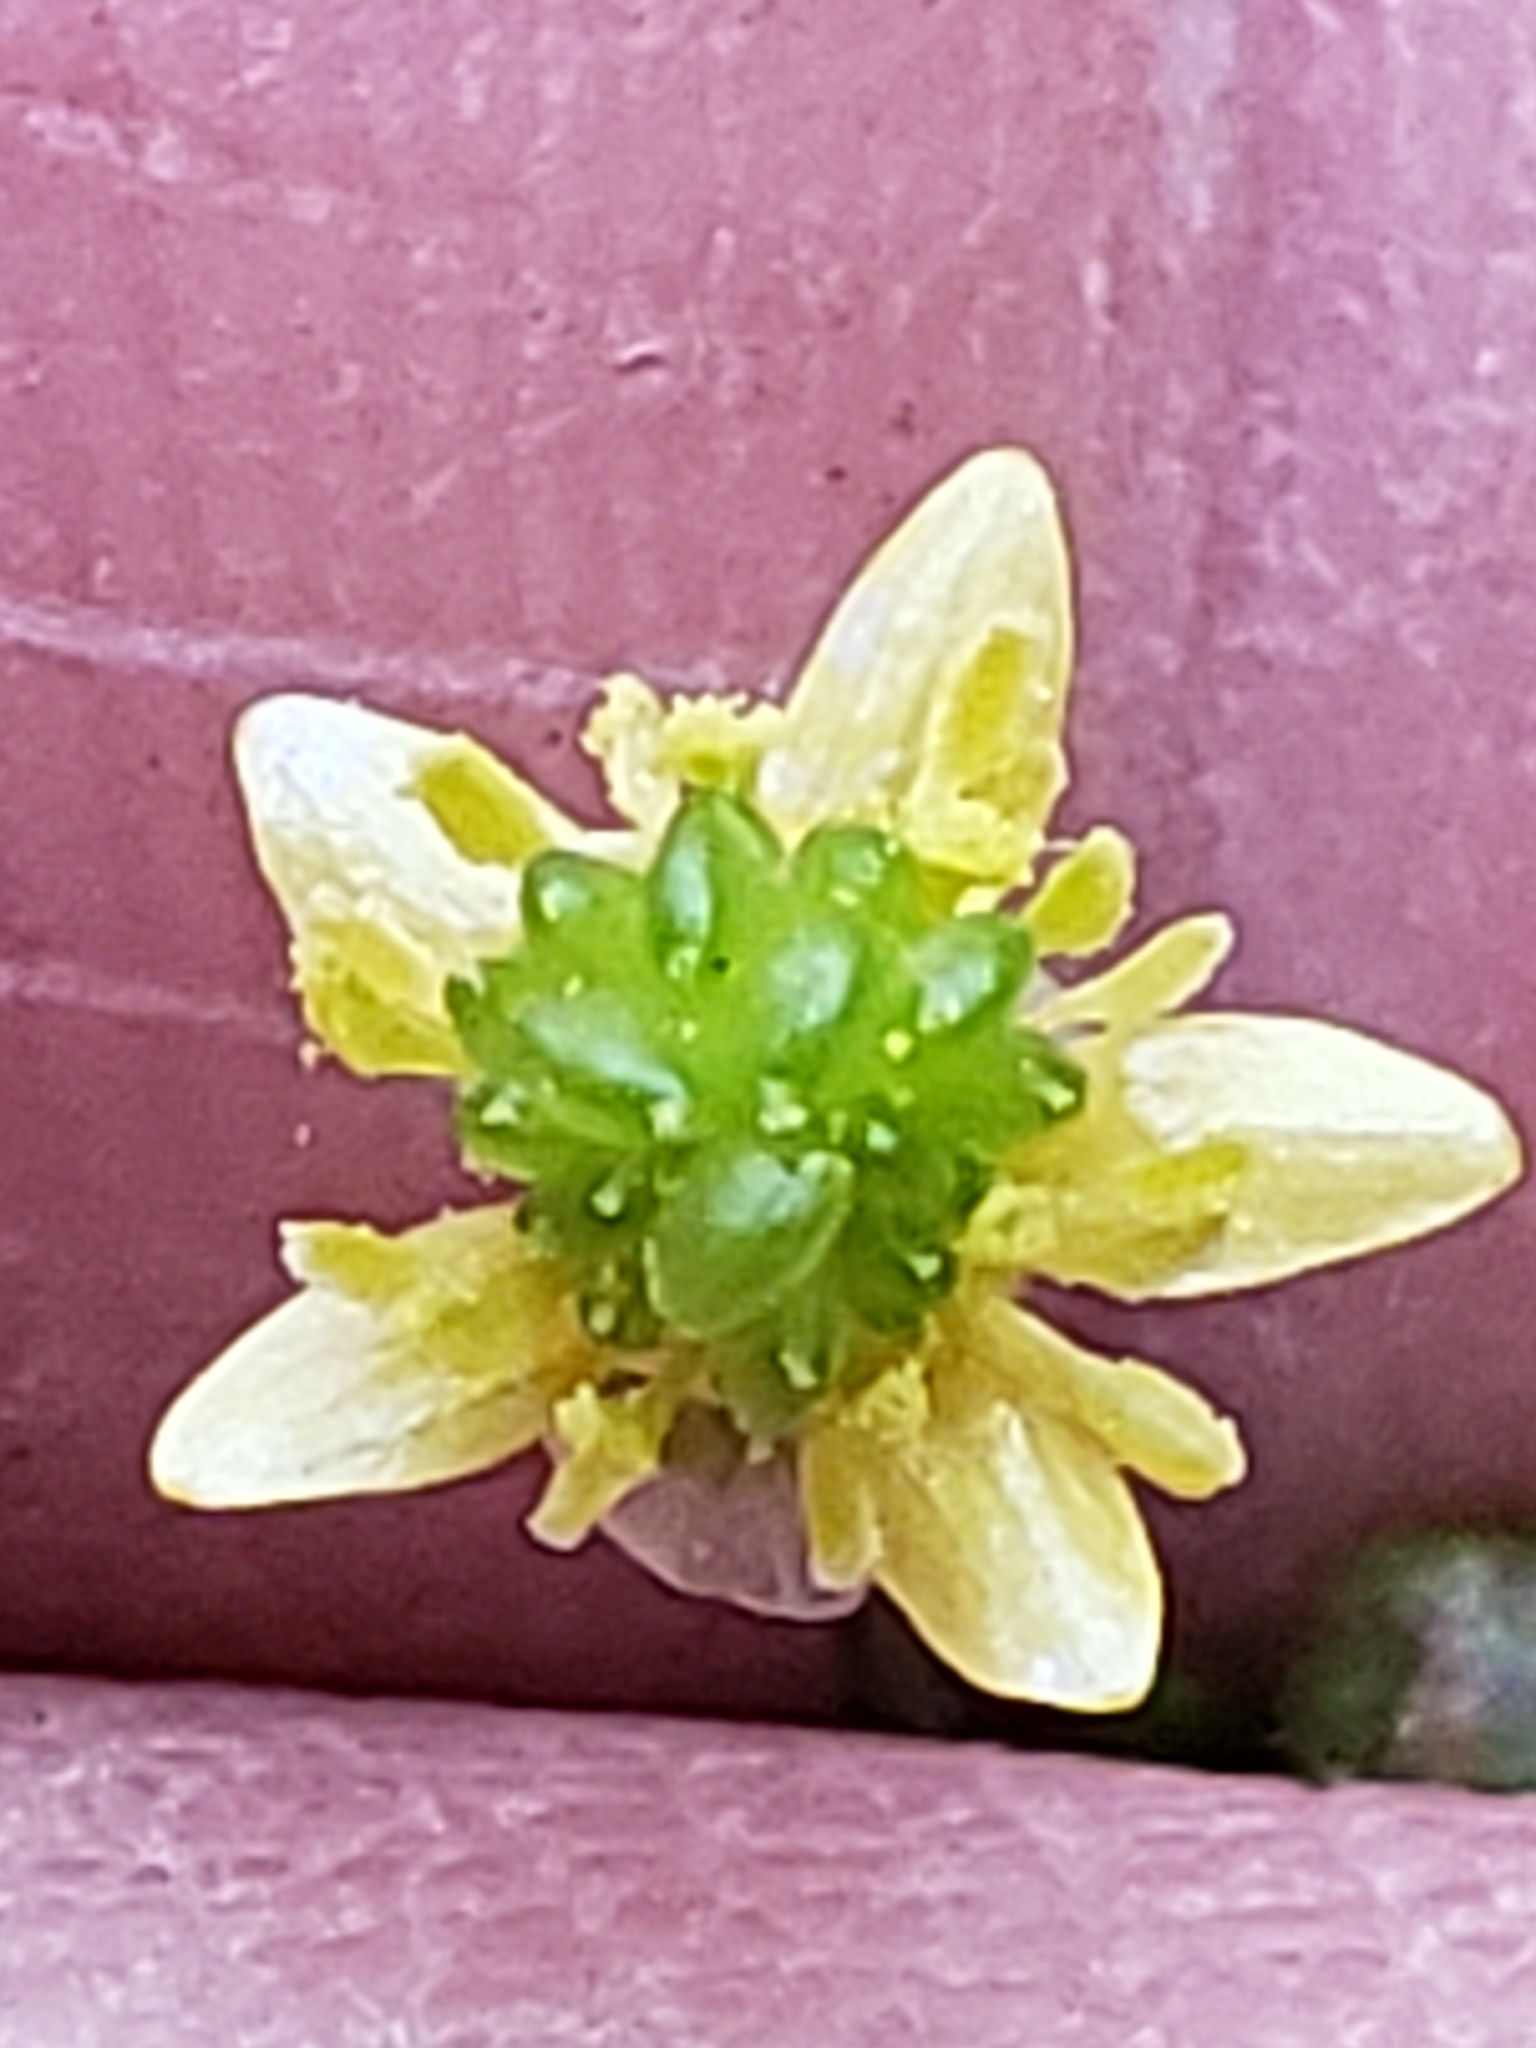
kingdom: Plantae
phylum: Tracheophyta
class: Magnoliopsida
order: Ranunculales
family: Ranunculaceae
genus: Ranunculus
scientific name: Ranunculus abortivus
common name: Early wood buttercup
